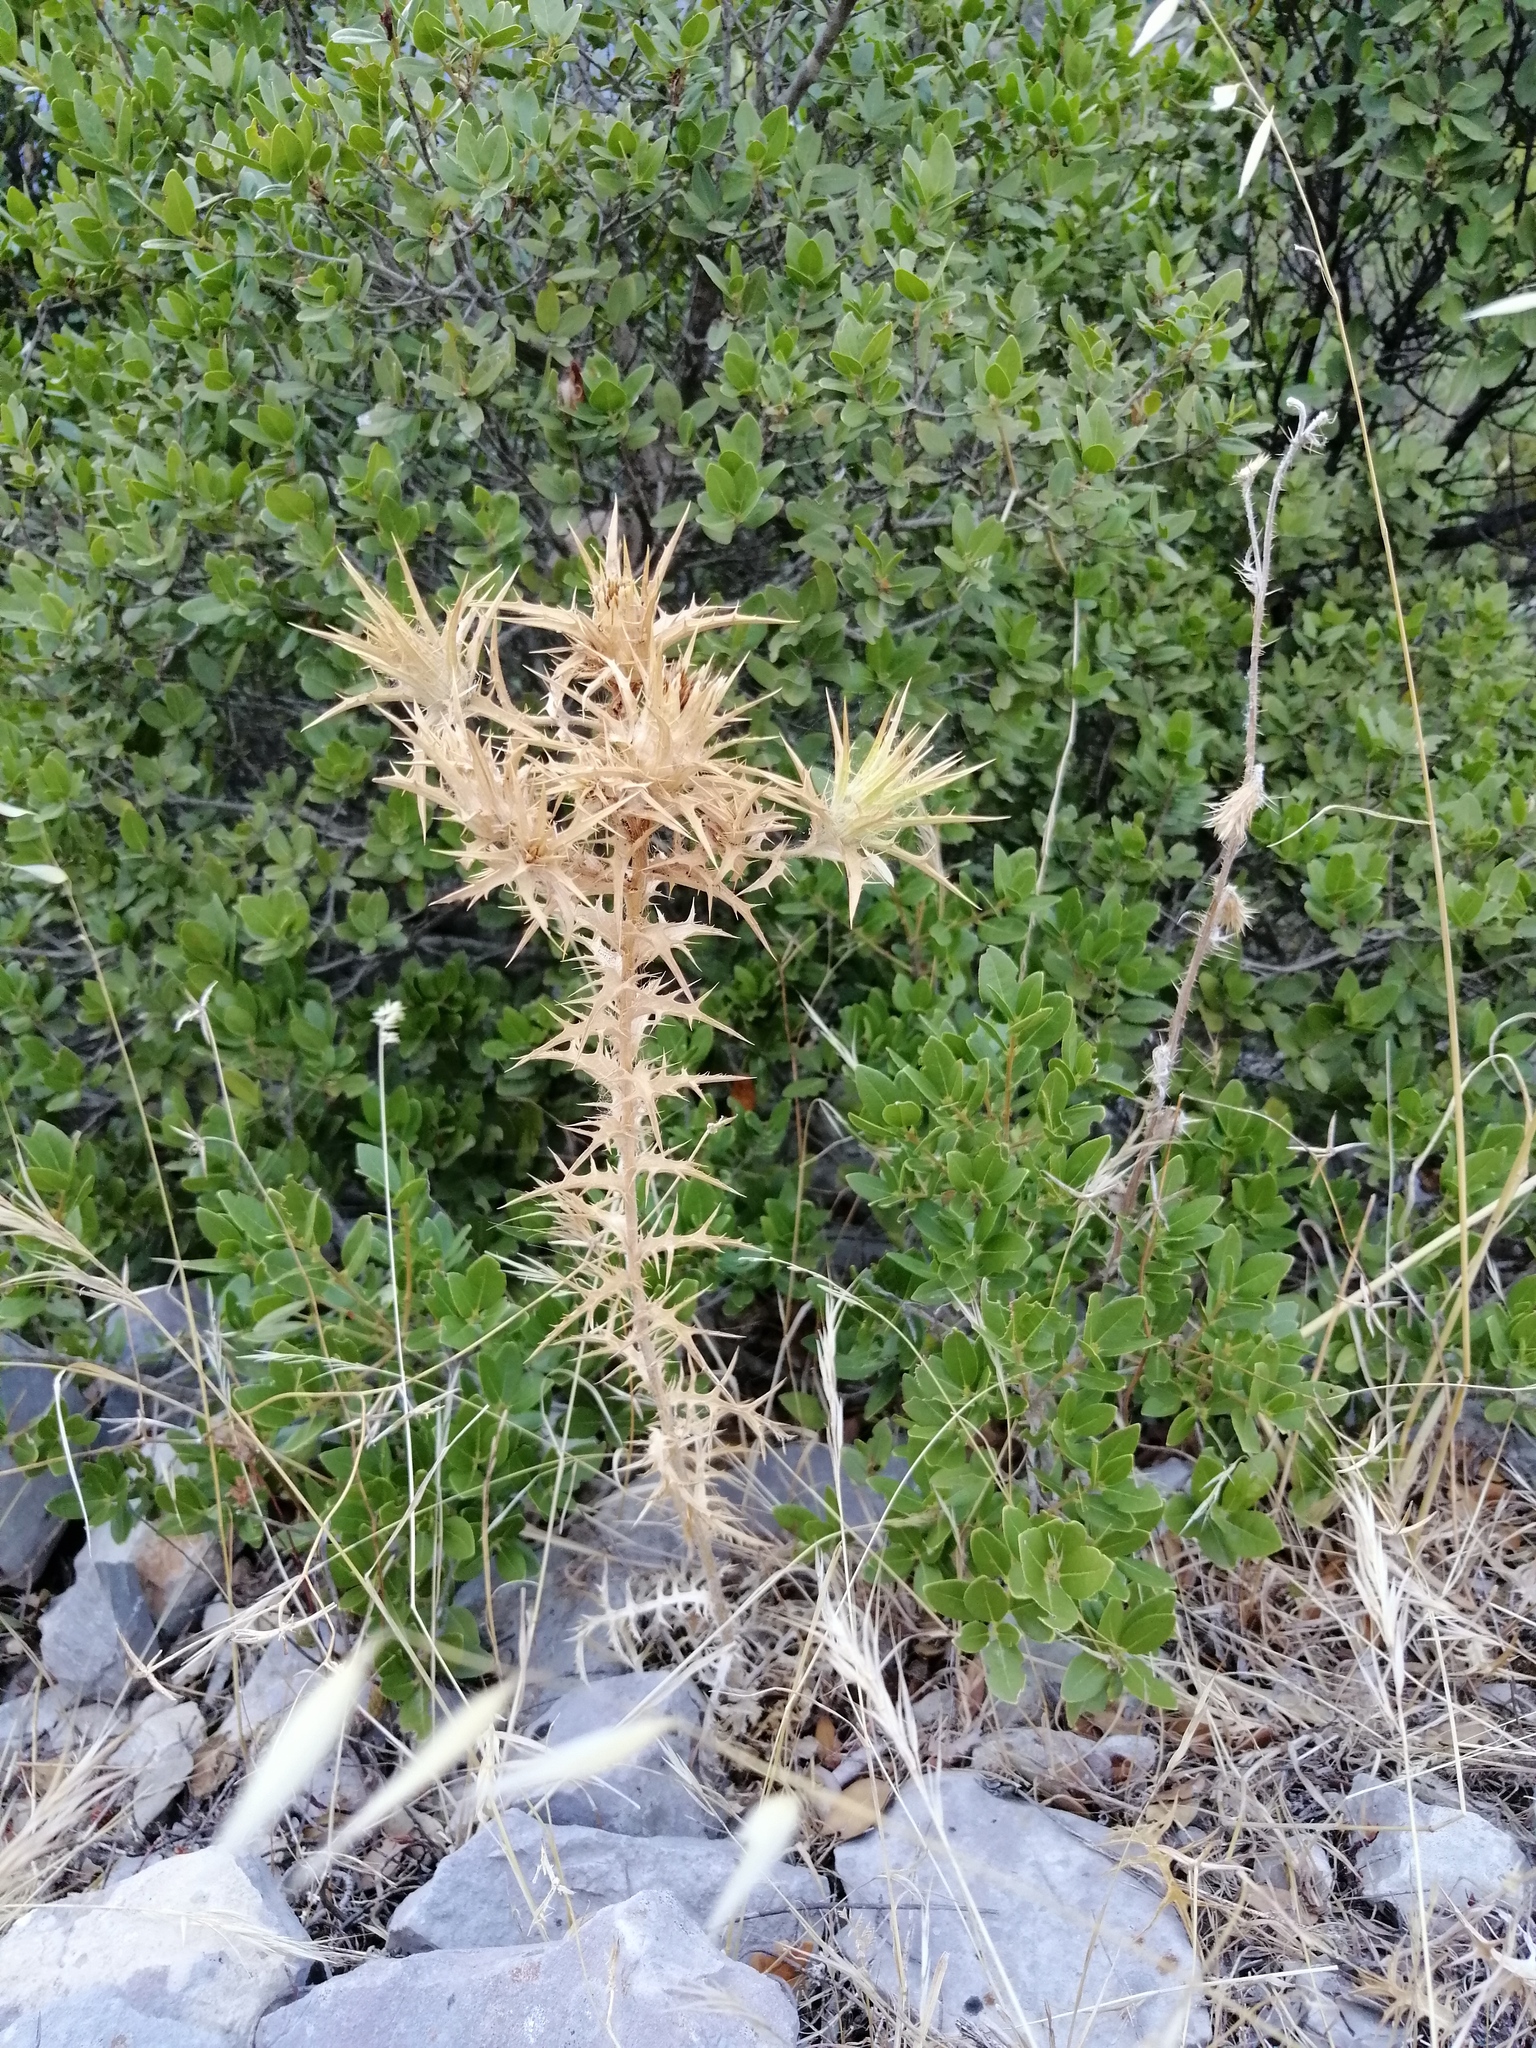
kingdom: Plantae
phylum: Tracheophyta
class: Magnoliopsida
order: Asterales
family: Asteraceae
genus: Carthamus
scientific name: Carthamus lanatus
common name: Downy safflower
